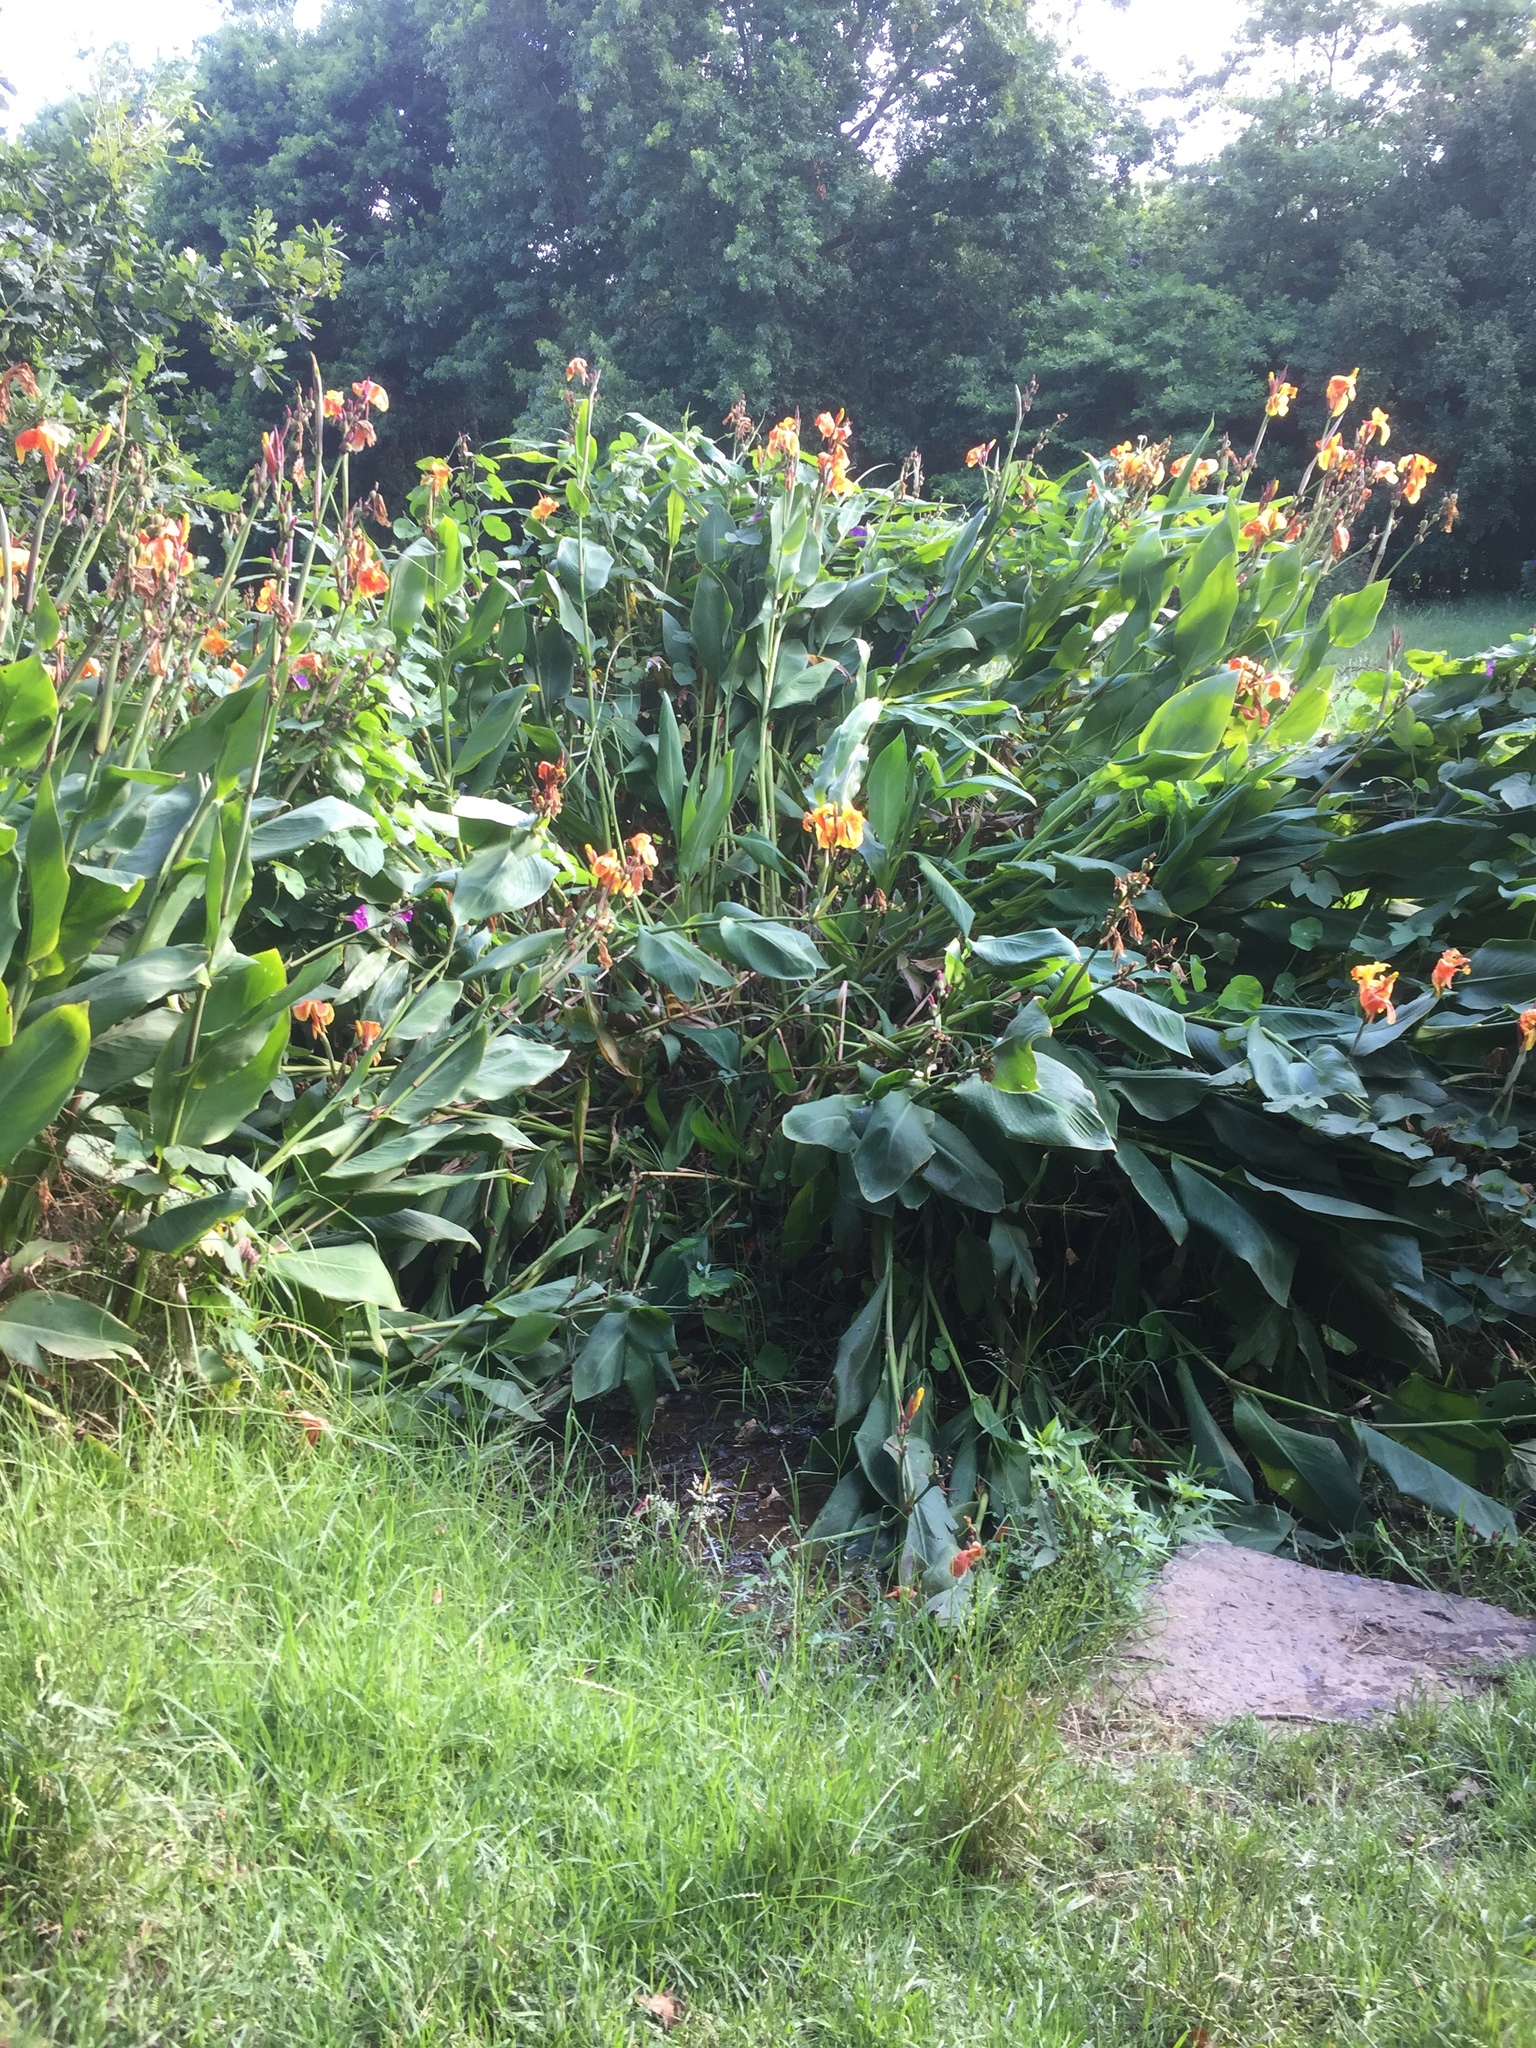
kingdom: Plantae
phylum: Tracheophyta
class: Liliopsida
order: Zingiberales
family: Cannaceae
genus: Canna
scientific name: Canna hybrida
